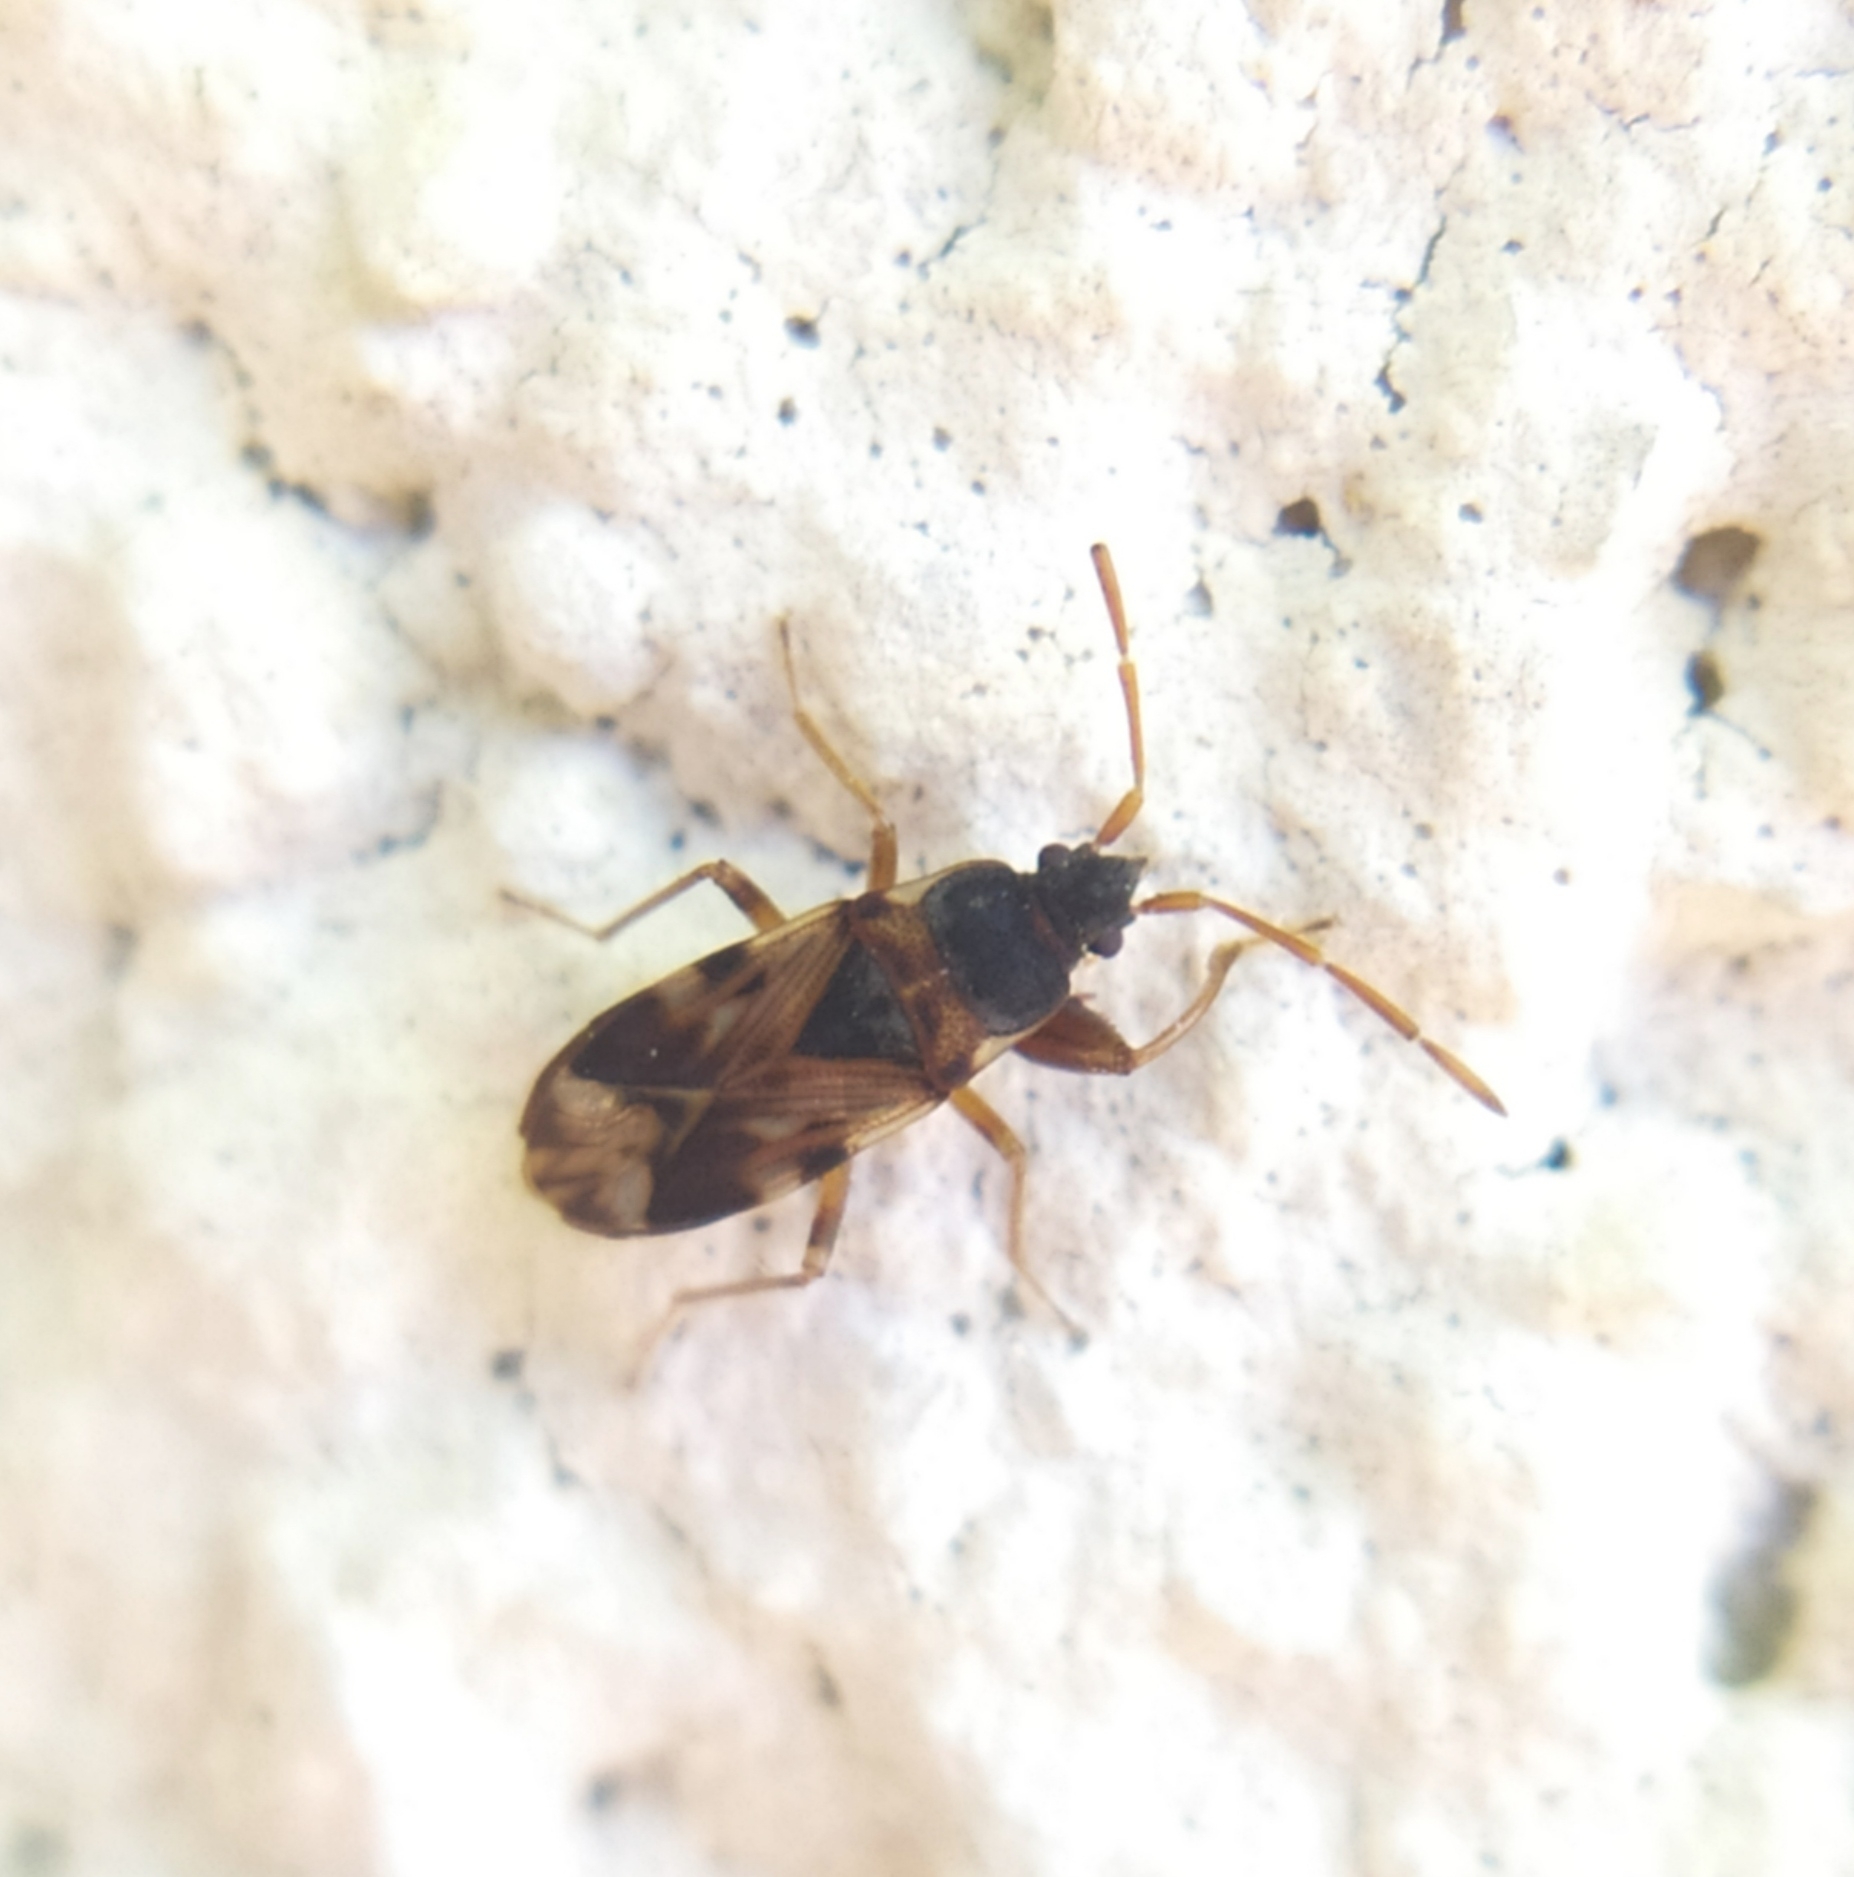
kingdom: Animalia
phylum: Arthropoda
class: Insecta
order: Hemiptera
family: Rhyparochromidae
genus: Scolopostethus
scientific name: Scolopostethus pictus
